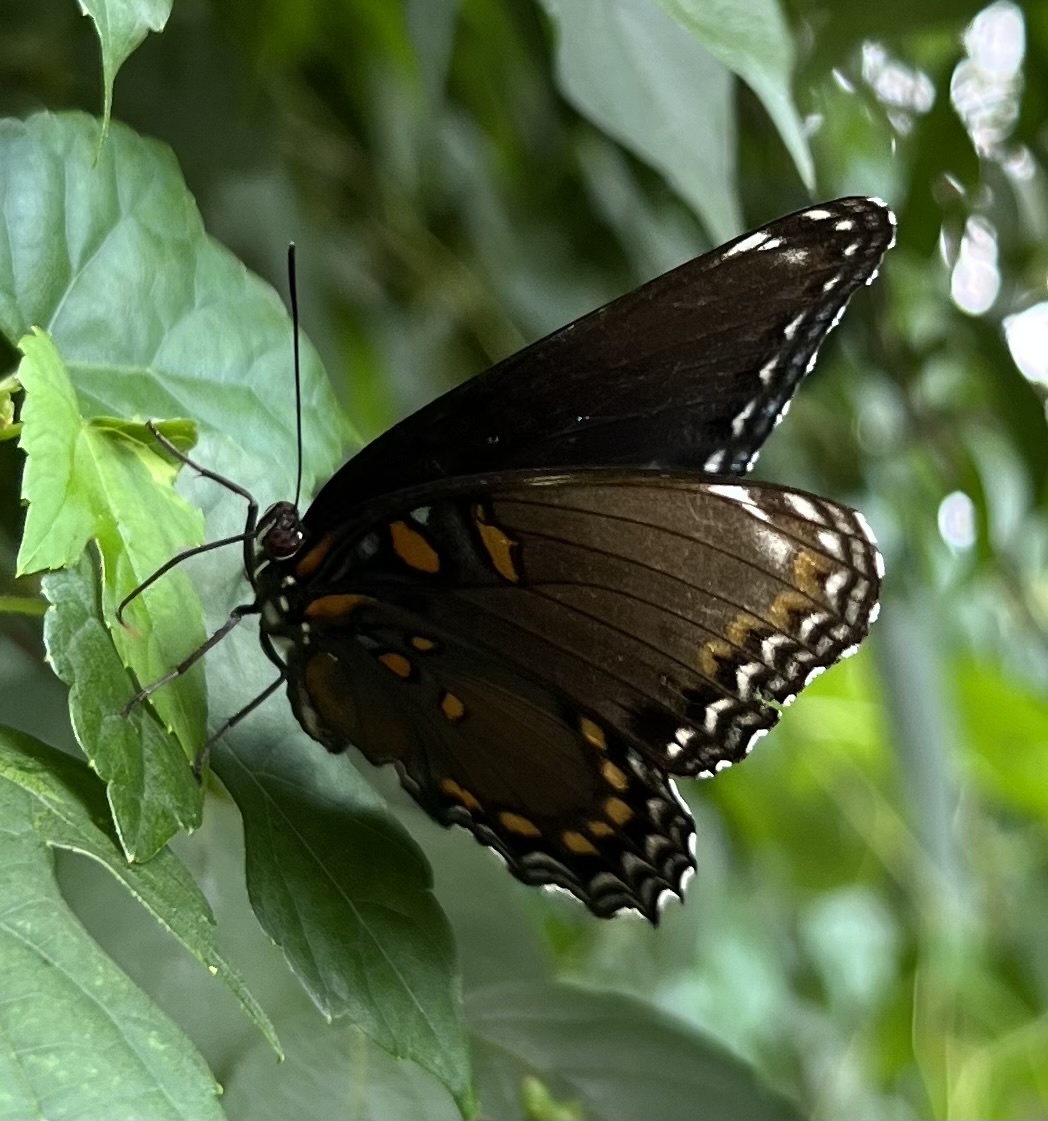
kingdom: Animalia
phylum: Arthropoda
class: Insecta
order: Lepidoptera
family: Nymphalidae
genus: Limenitis
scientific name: Limenitis astyanax
